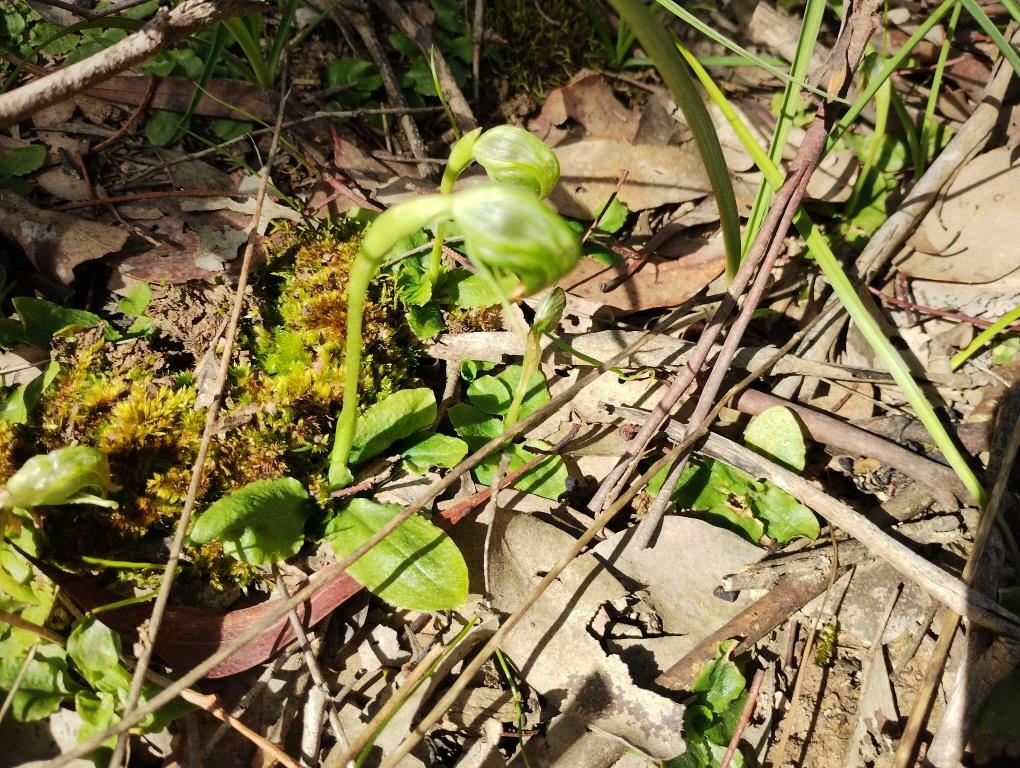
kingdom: Plantae
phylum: Tracheophyta
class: Liliopsida
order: Asparagales
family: Orchidaceae
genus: Pterostylis
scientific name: Pterostylis nutans
